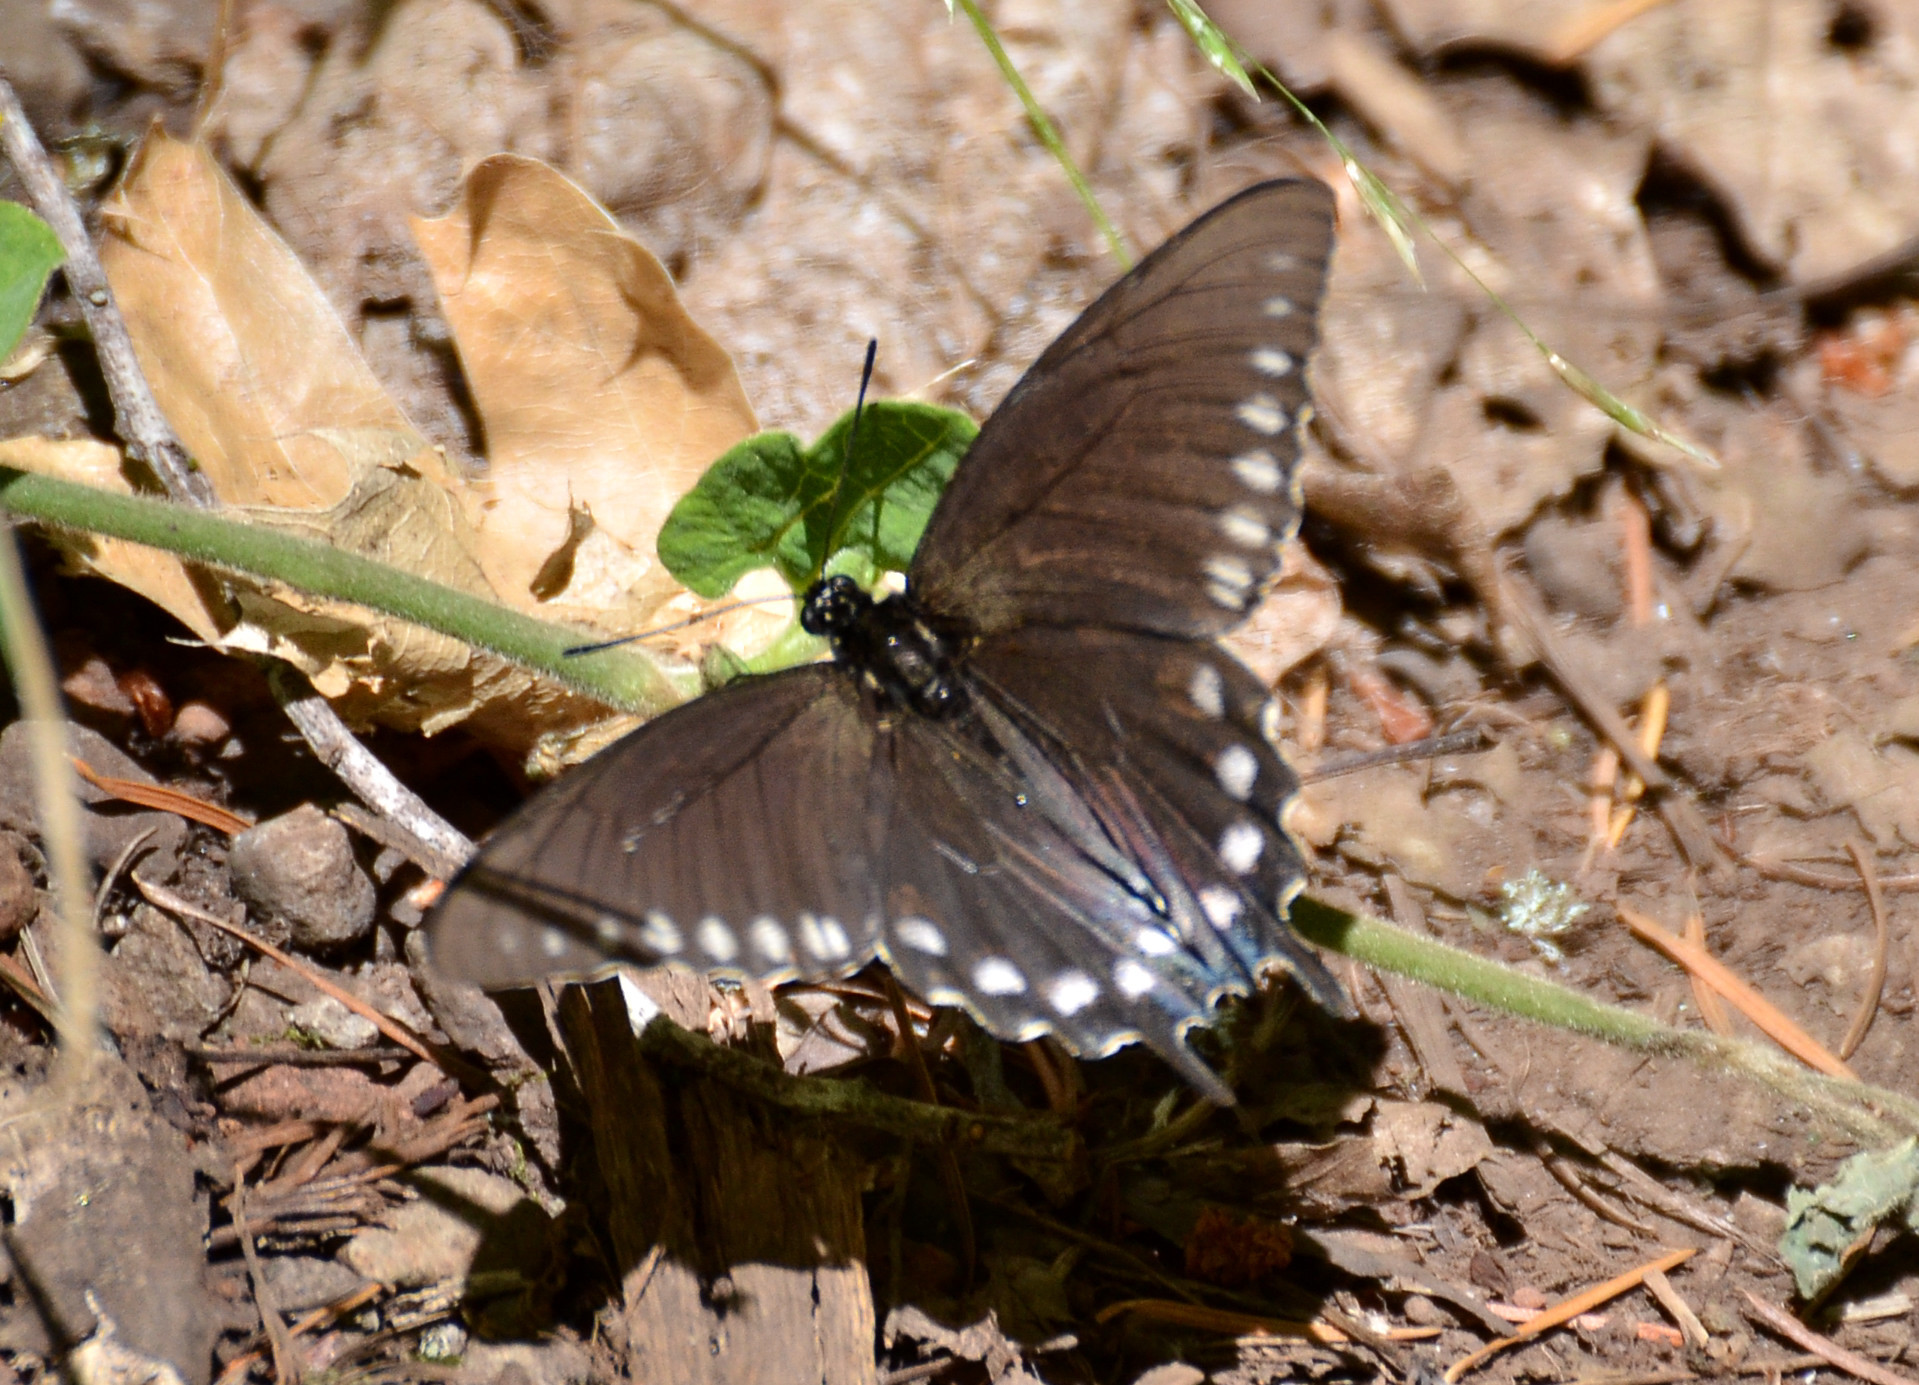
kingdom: Animalia
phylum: Arthropoda
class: Insecta
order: Lepidoptera
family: Papilionidae
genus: Battus
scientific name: Battus philenor
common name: Pipevine swallowtail
